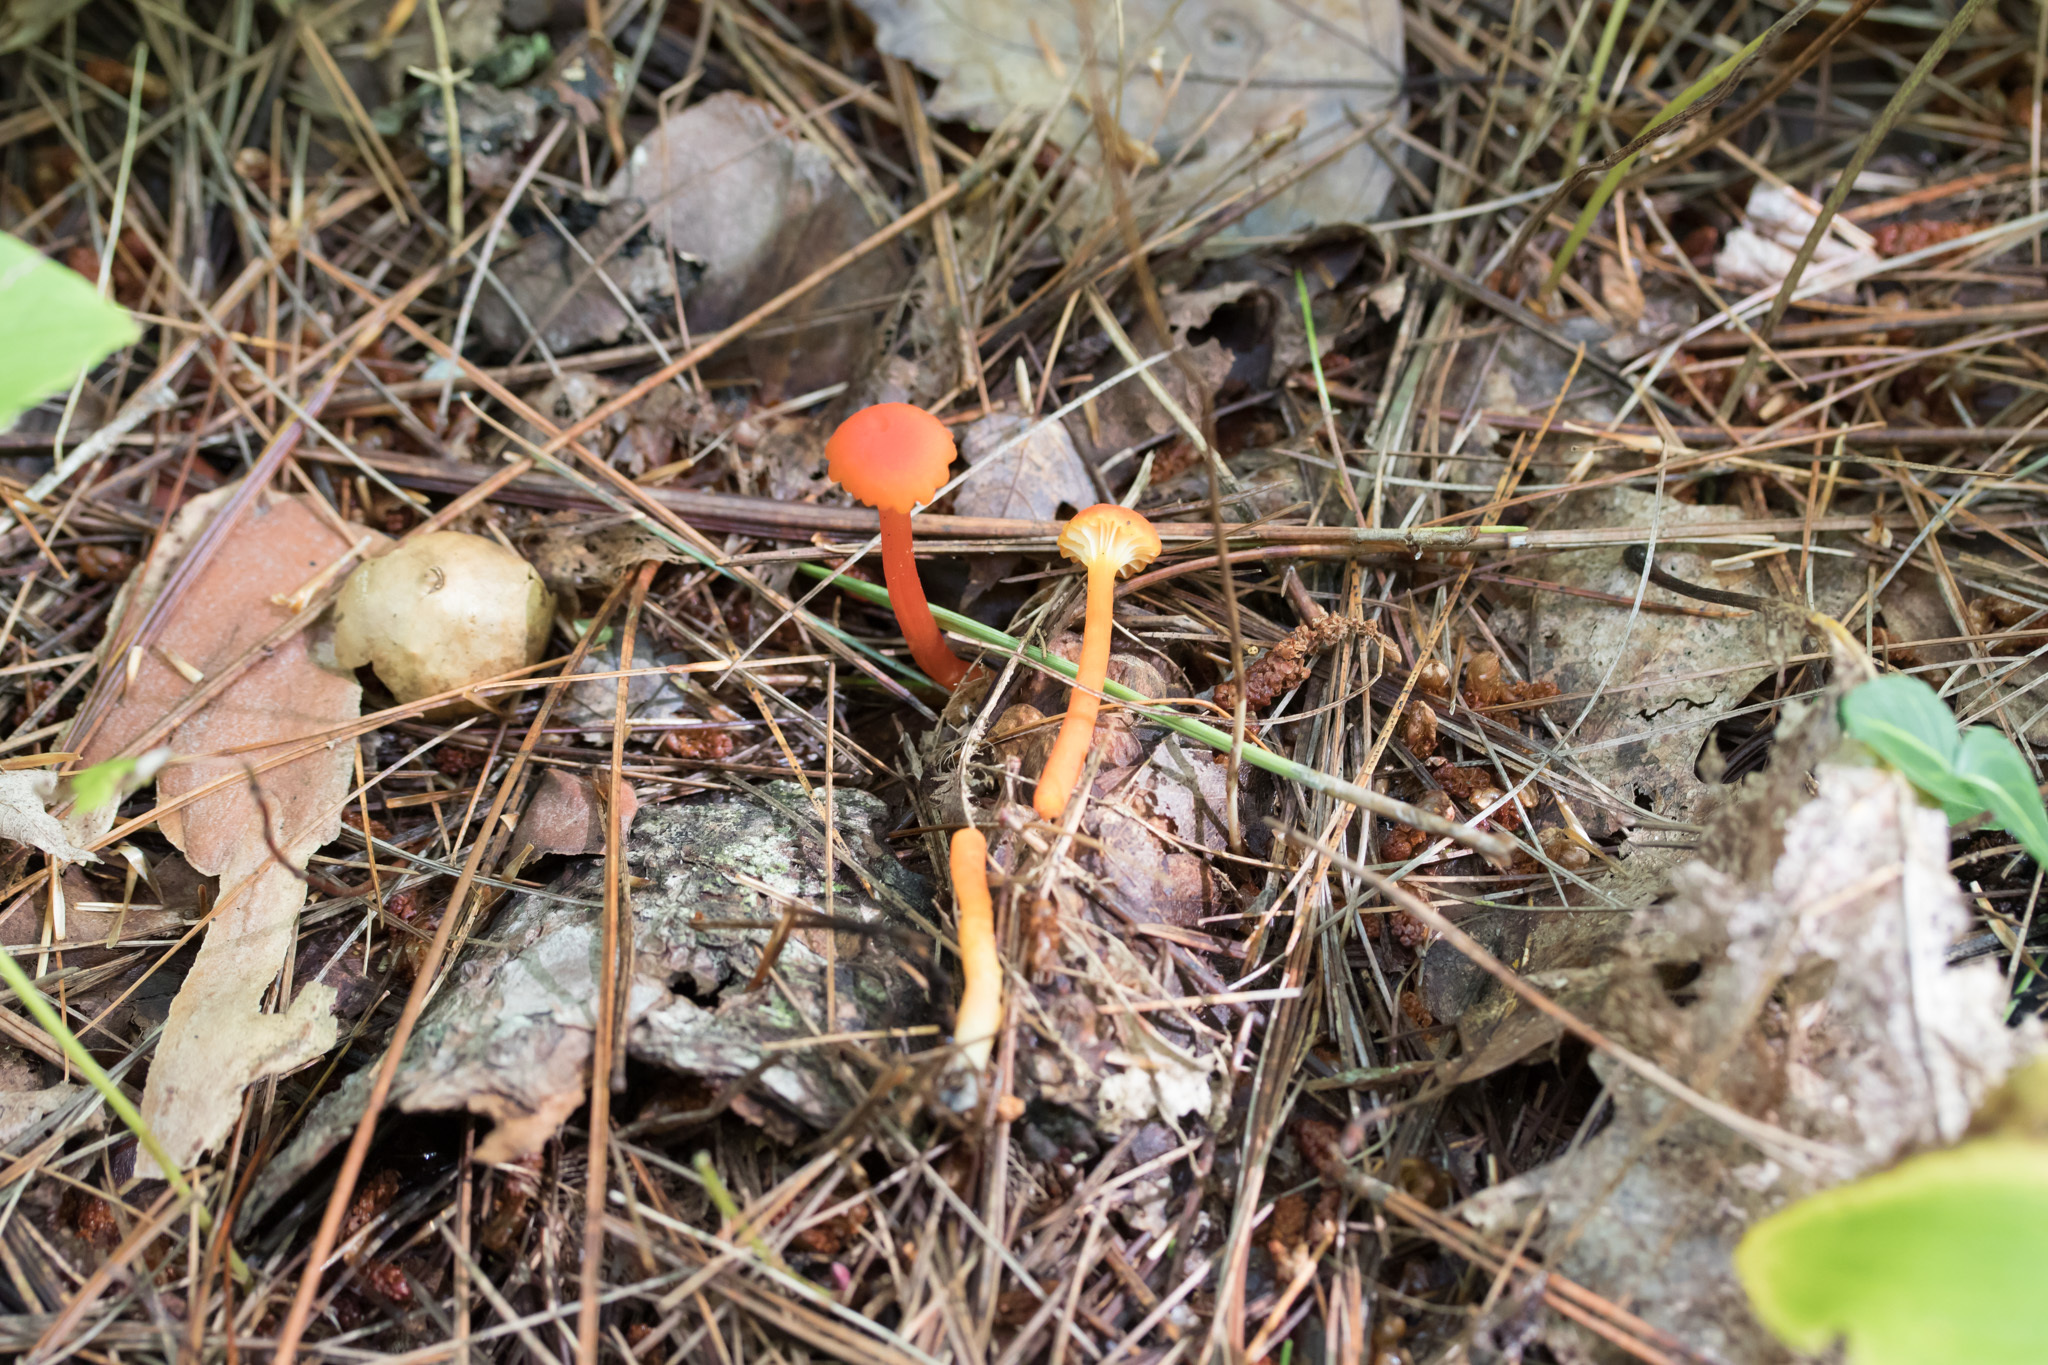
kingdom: Fungi
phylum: Basidiomycota
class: Agaricomycetes
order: Agaricales
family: Hygrophoraceae
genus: Hygrocybe
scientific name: Hygrocybe cantharellus
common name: Goblet waxcap
